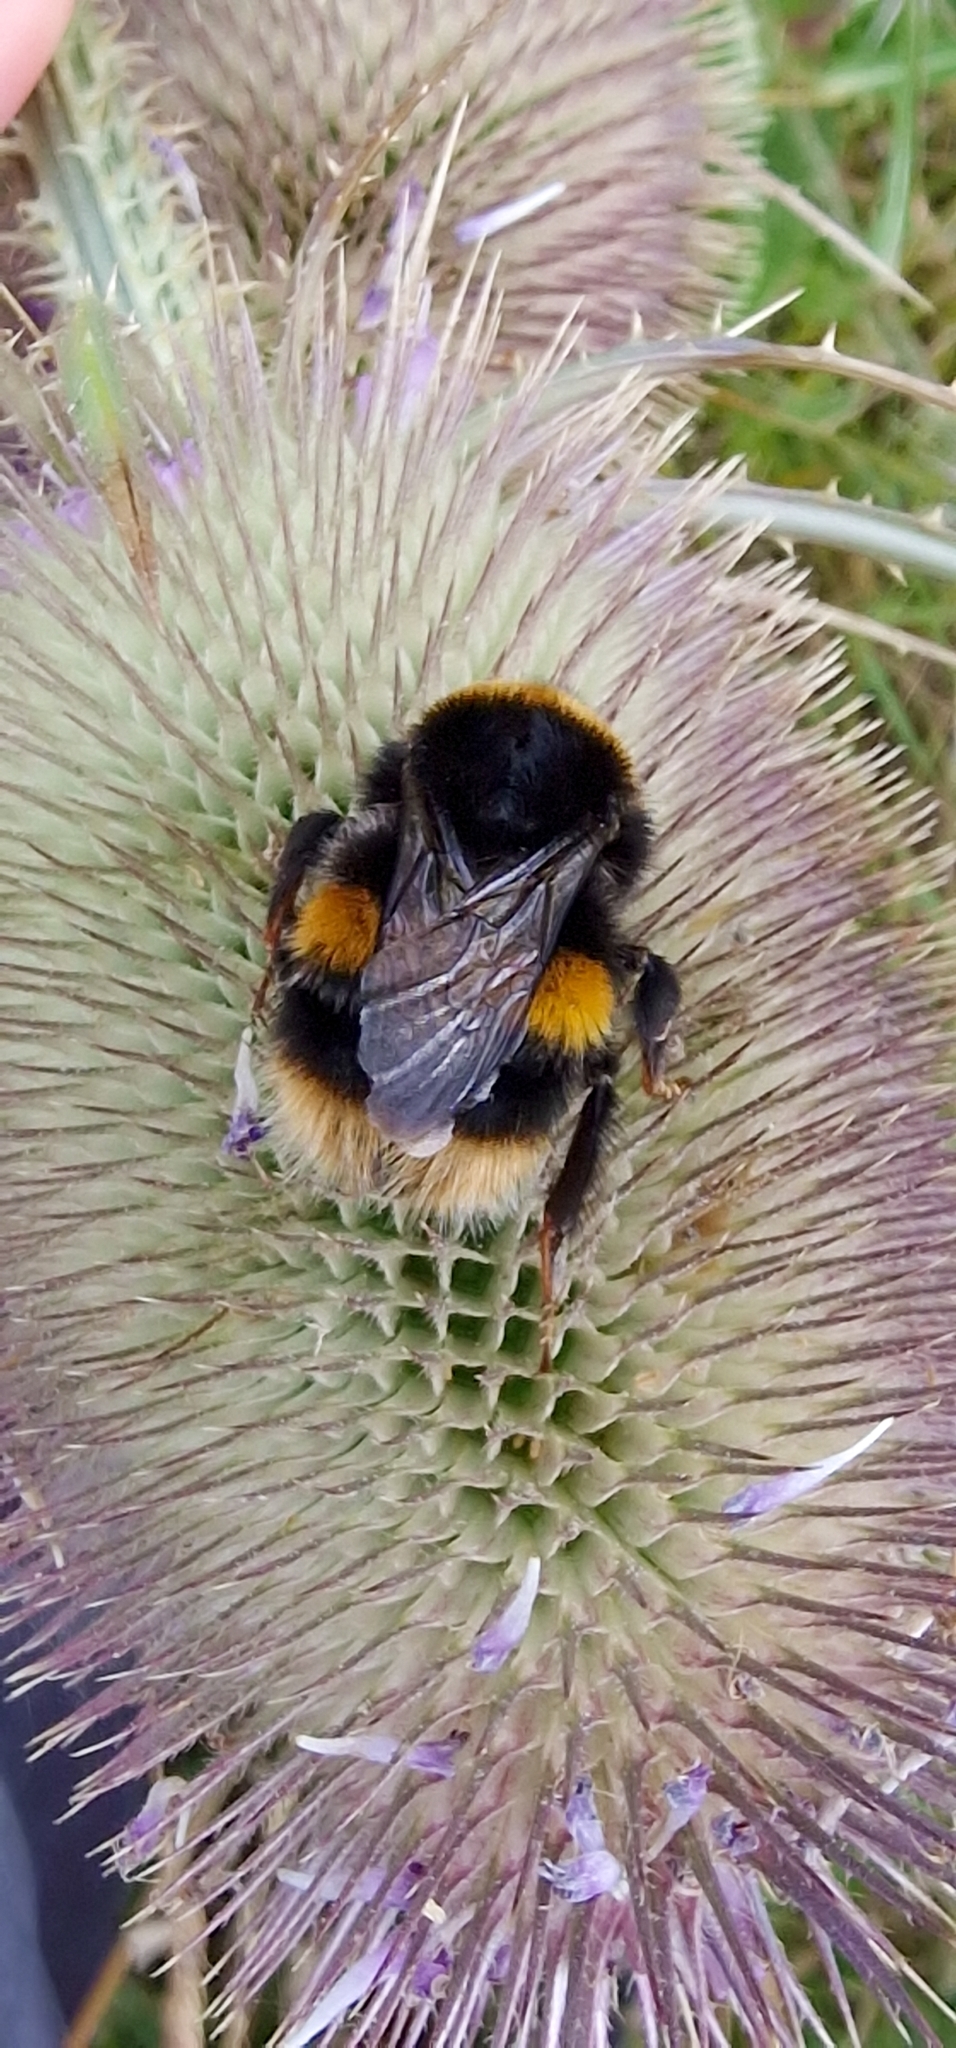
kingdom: Animalia
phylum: Arthropoda
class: Insecta
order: Hymenoptera
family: Apidae
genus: Bombus
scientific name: Bombus terrestris
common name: Buff-tailed bumblebee
